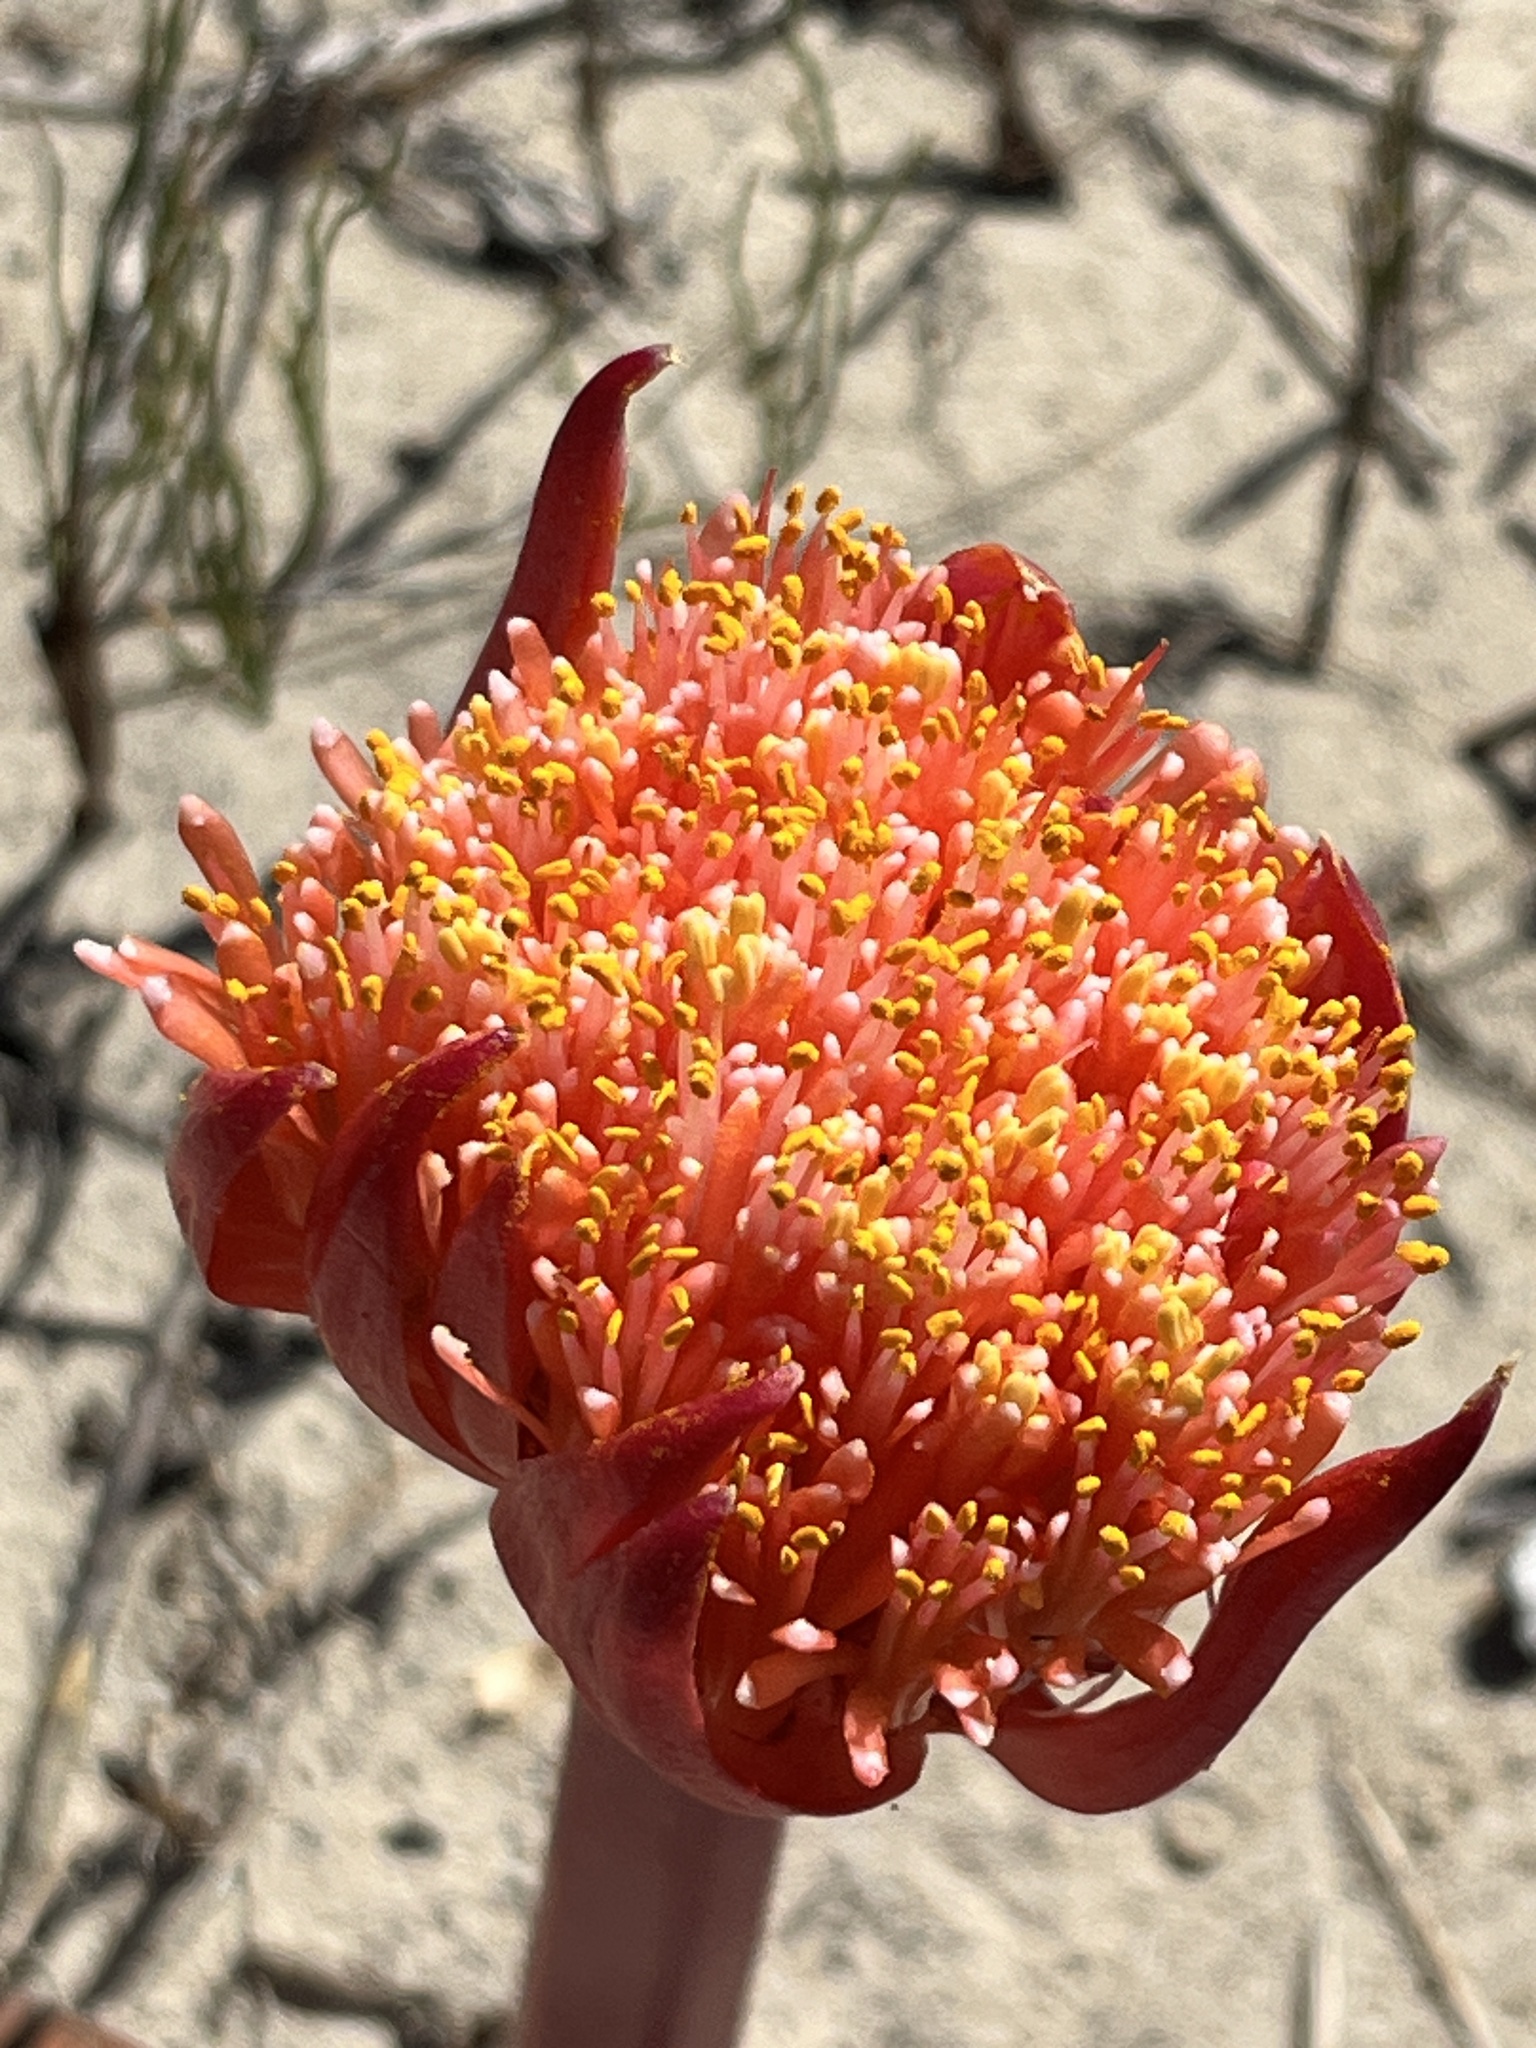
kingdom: Plantae
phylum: Tracheophyta
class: Liliopsida
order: Asparagales
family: Amaryllidaceae
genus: Haemanthus
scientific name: Haemanthus sanguineus
